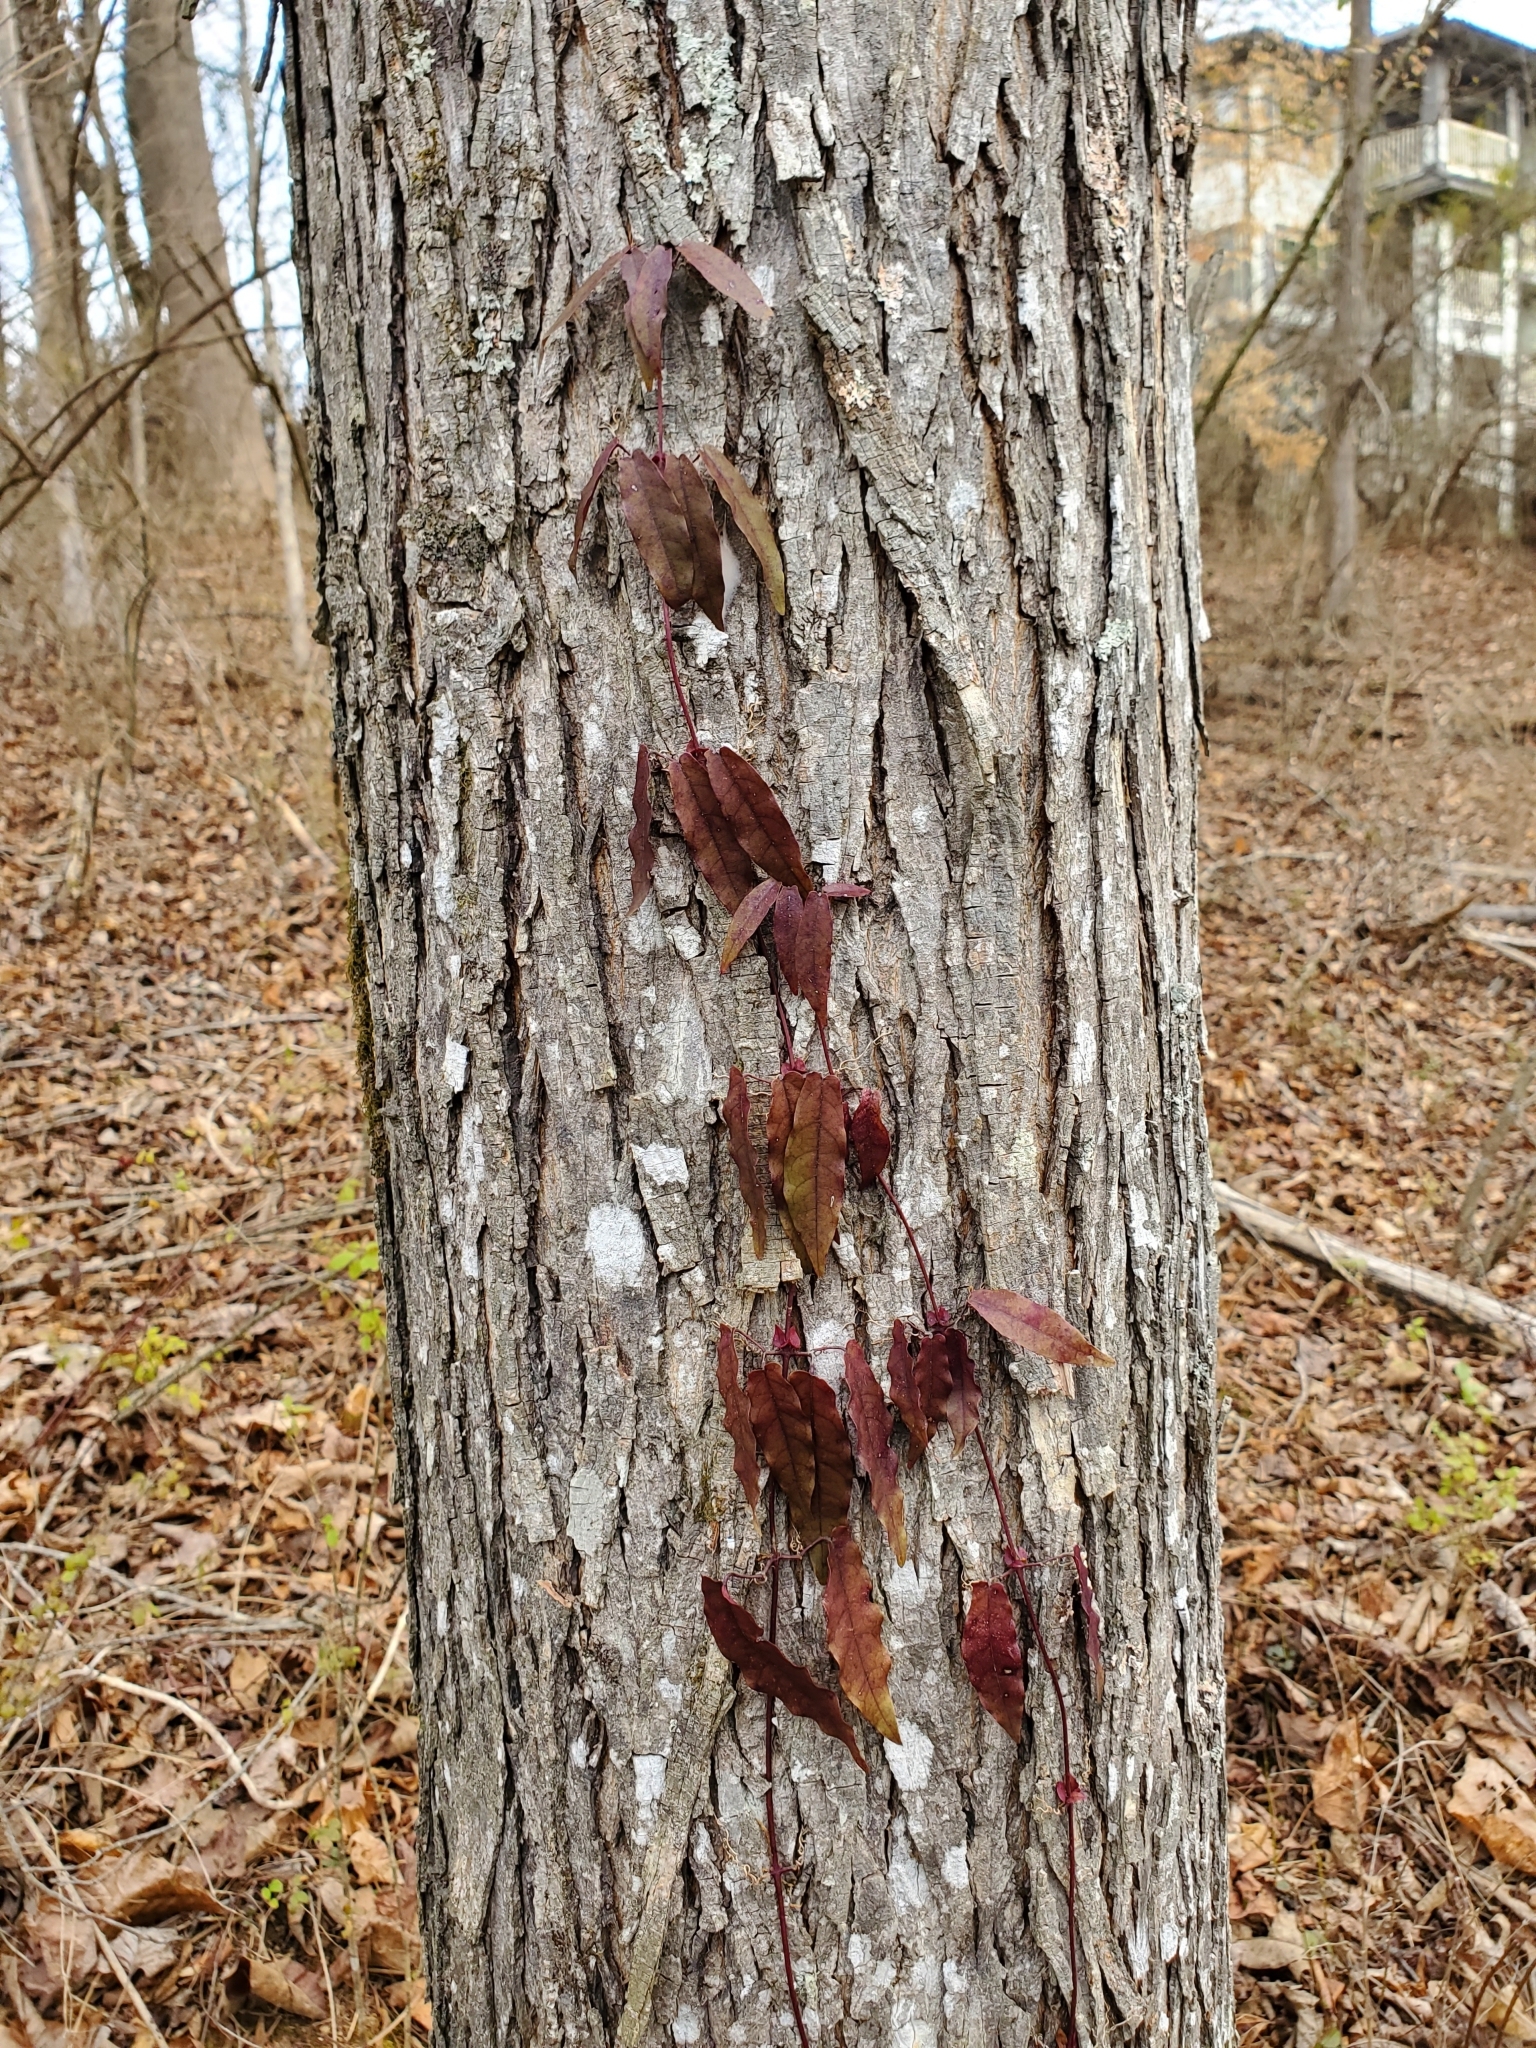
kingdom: Plantae
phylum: Tracheophyta
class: Magnoliopsida
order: Lamiales
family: Bignoniaceae
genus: Bignonia
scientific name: Bignonia capreolata
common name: Crossvine
